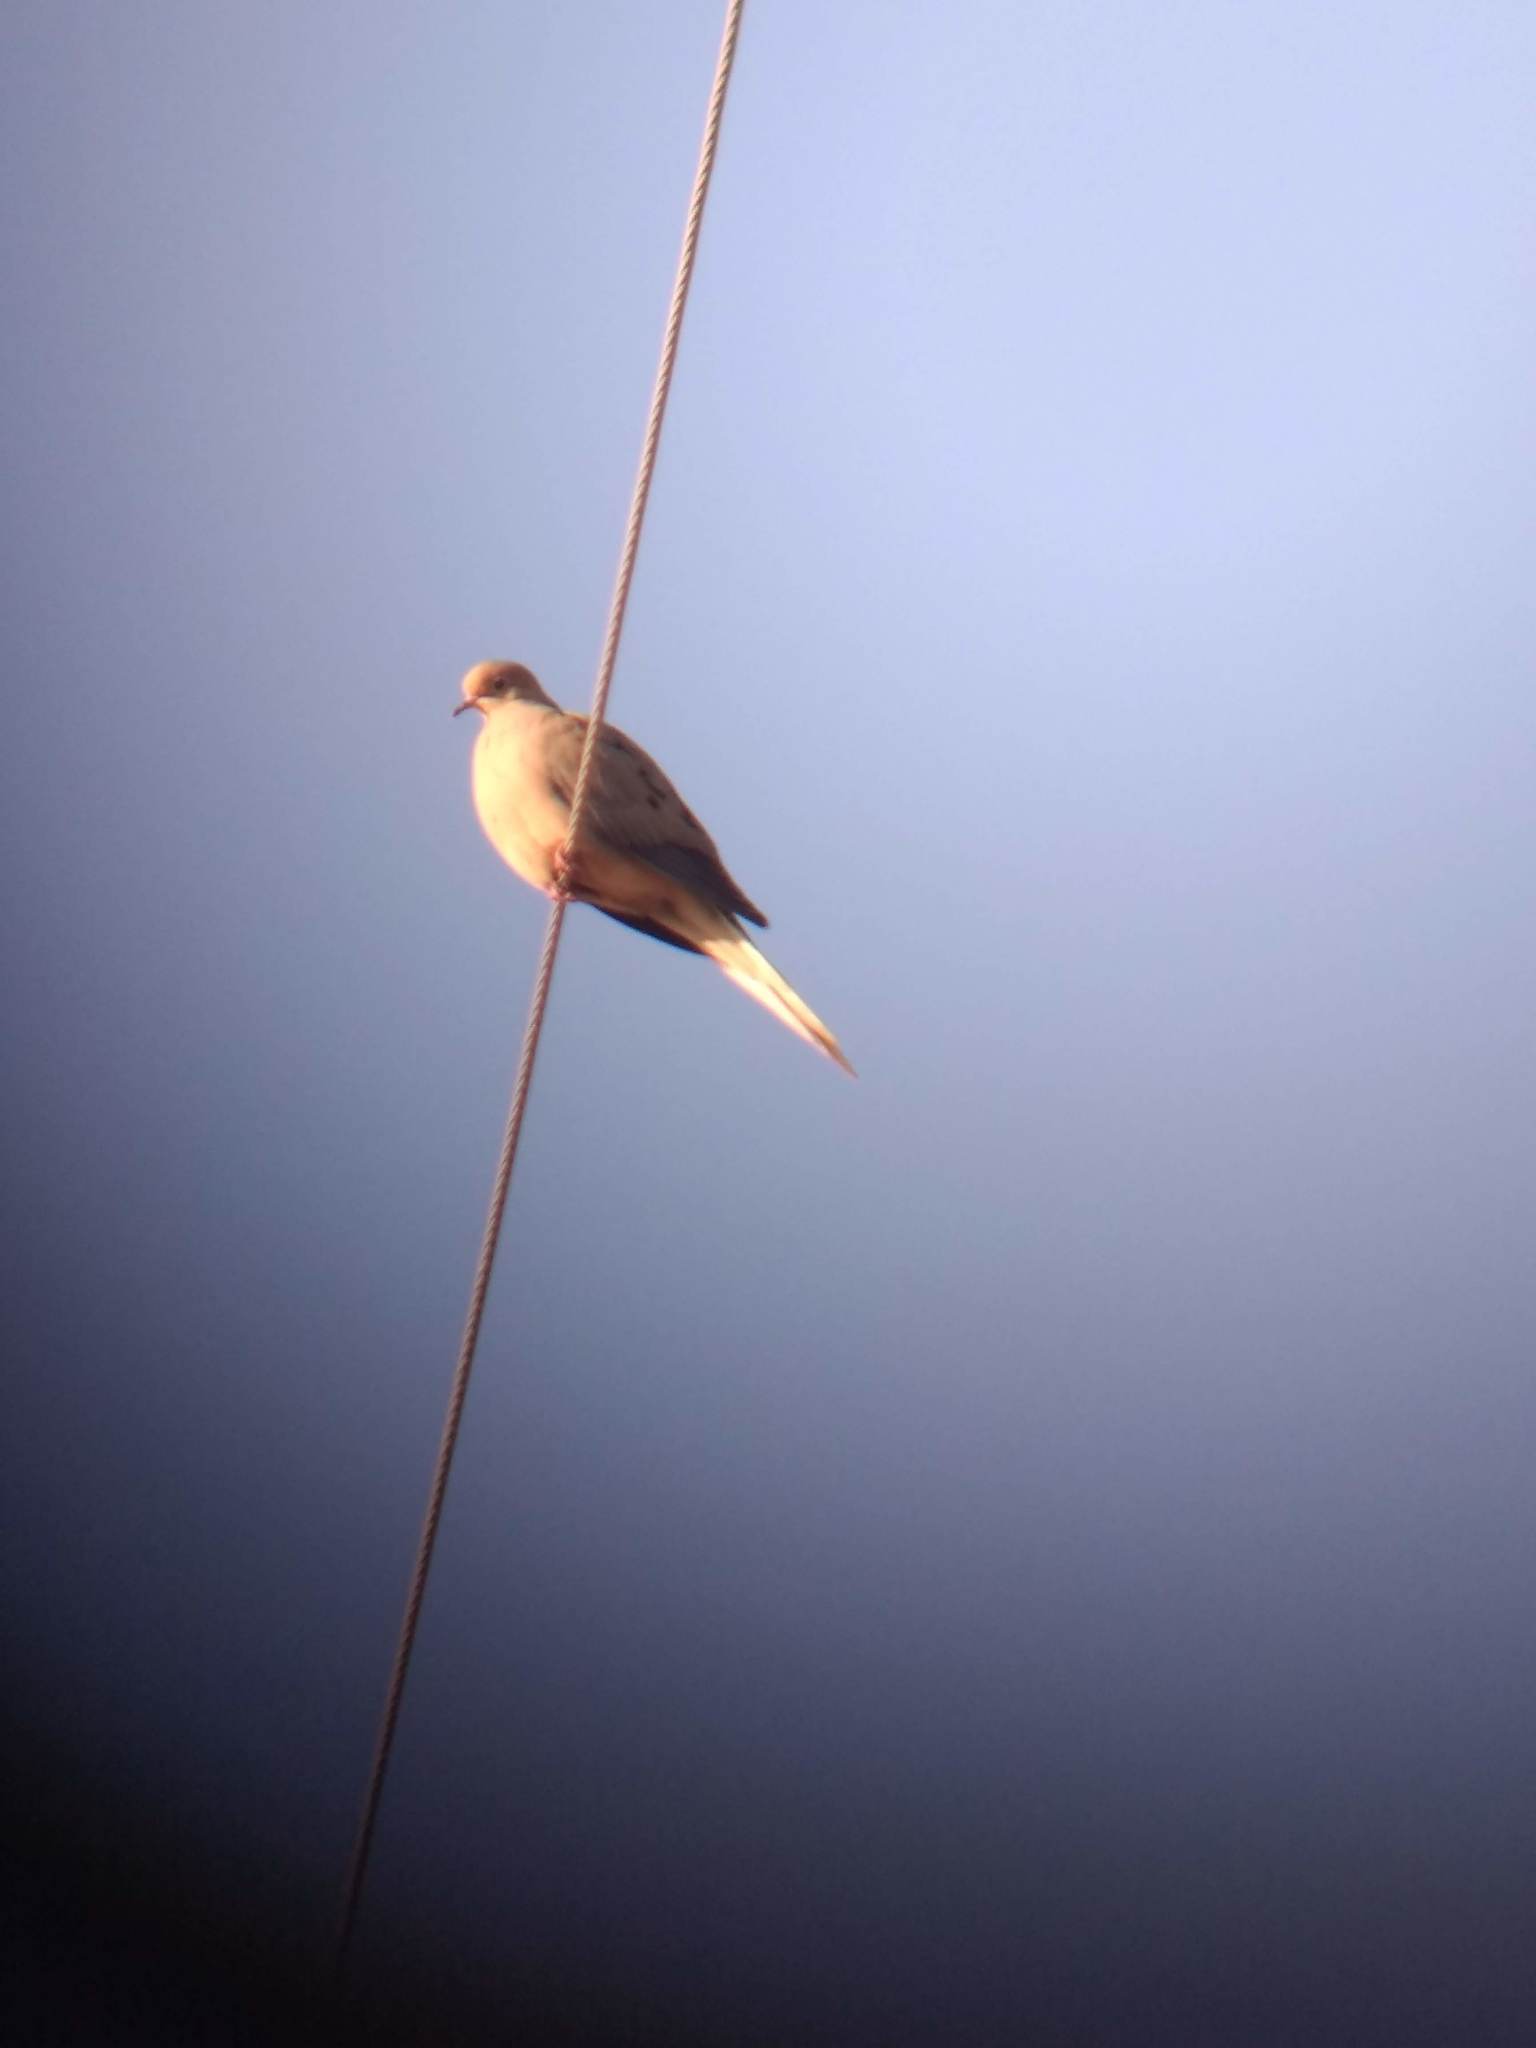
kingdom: Animalia
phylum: Chordata
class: Aves
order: Columbiformes
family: Columbidae
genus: Zenaida
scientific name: Zenaida macroura
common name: Mourning dove
